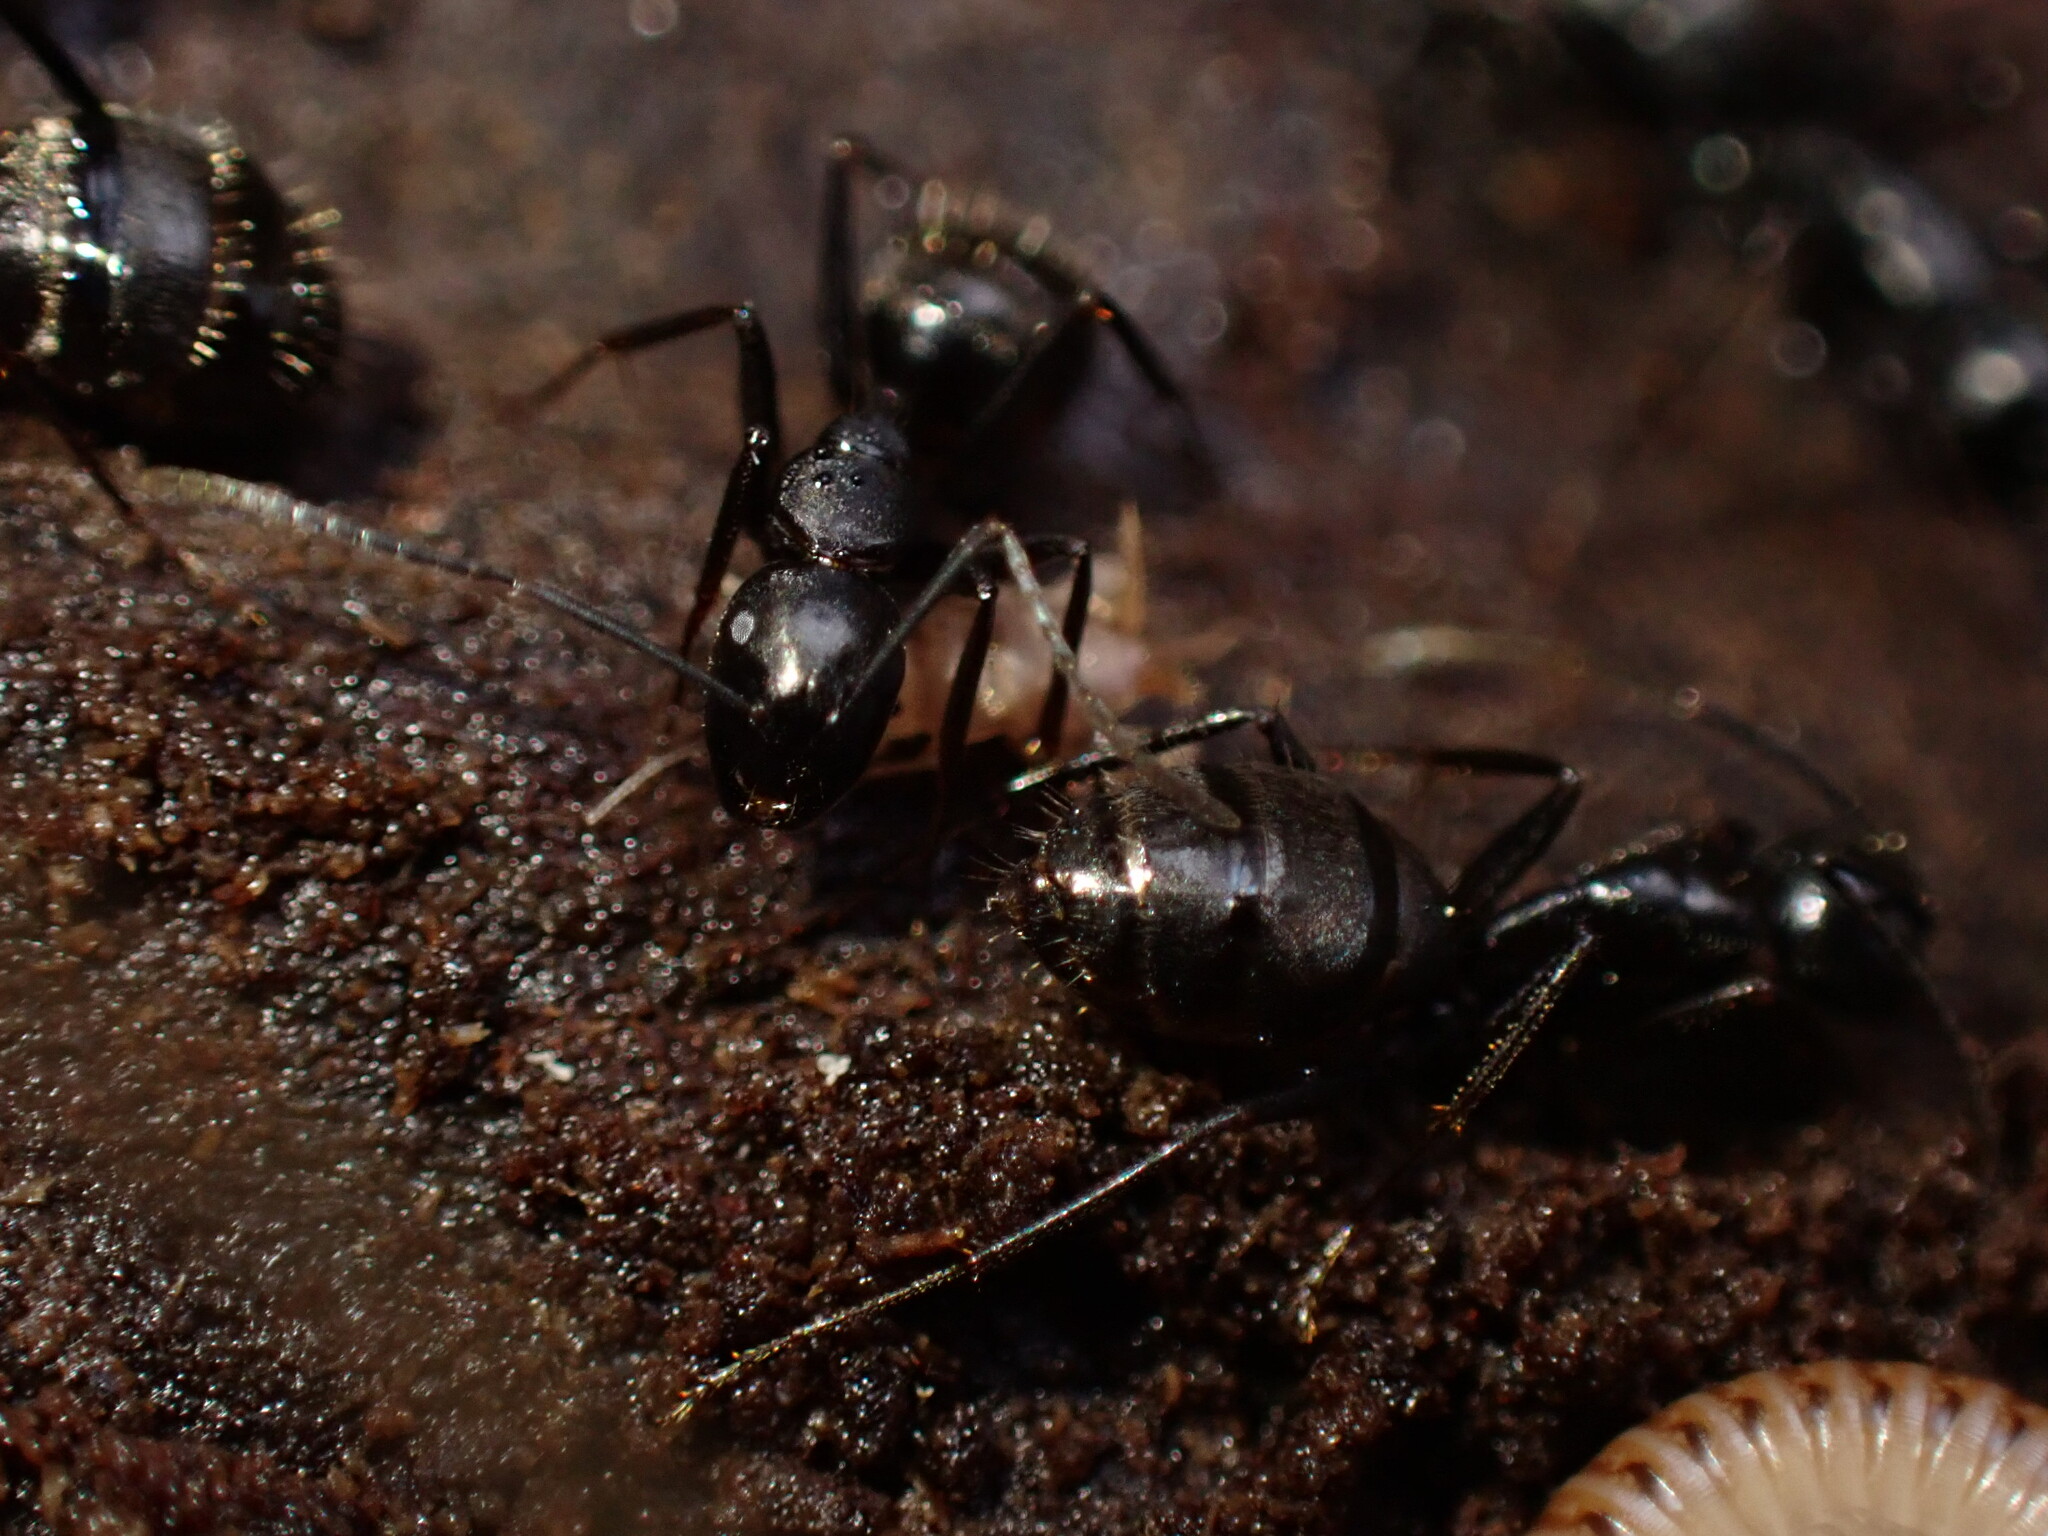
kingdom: Animalia
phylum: Arthropoda
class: Insecta
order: Hymenoptera
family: Formicidae
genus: Camponotus
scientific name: Camponotus pennsylvanicus
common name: Black carpenter ant
